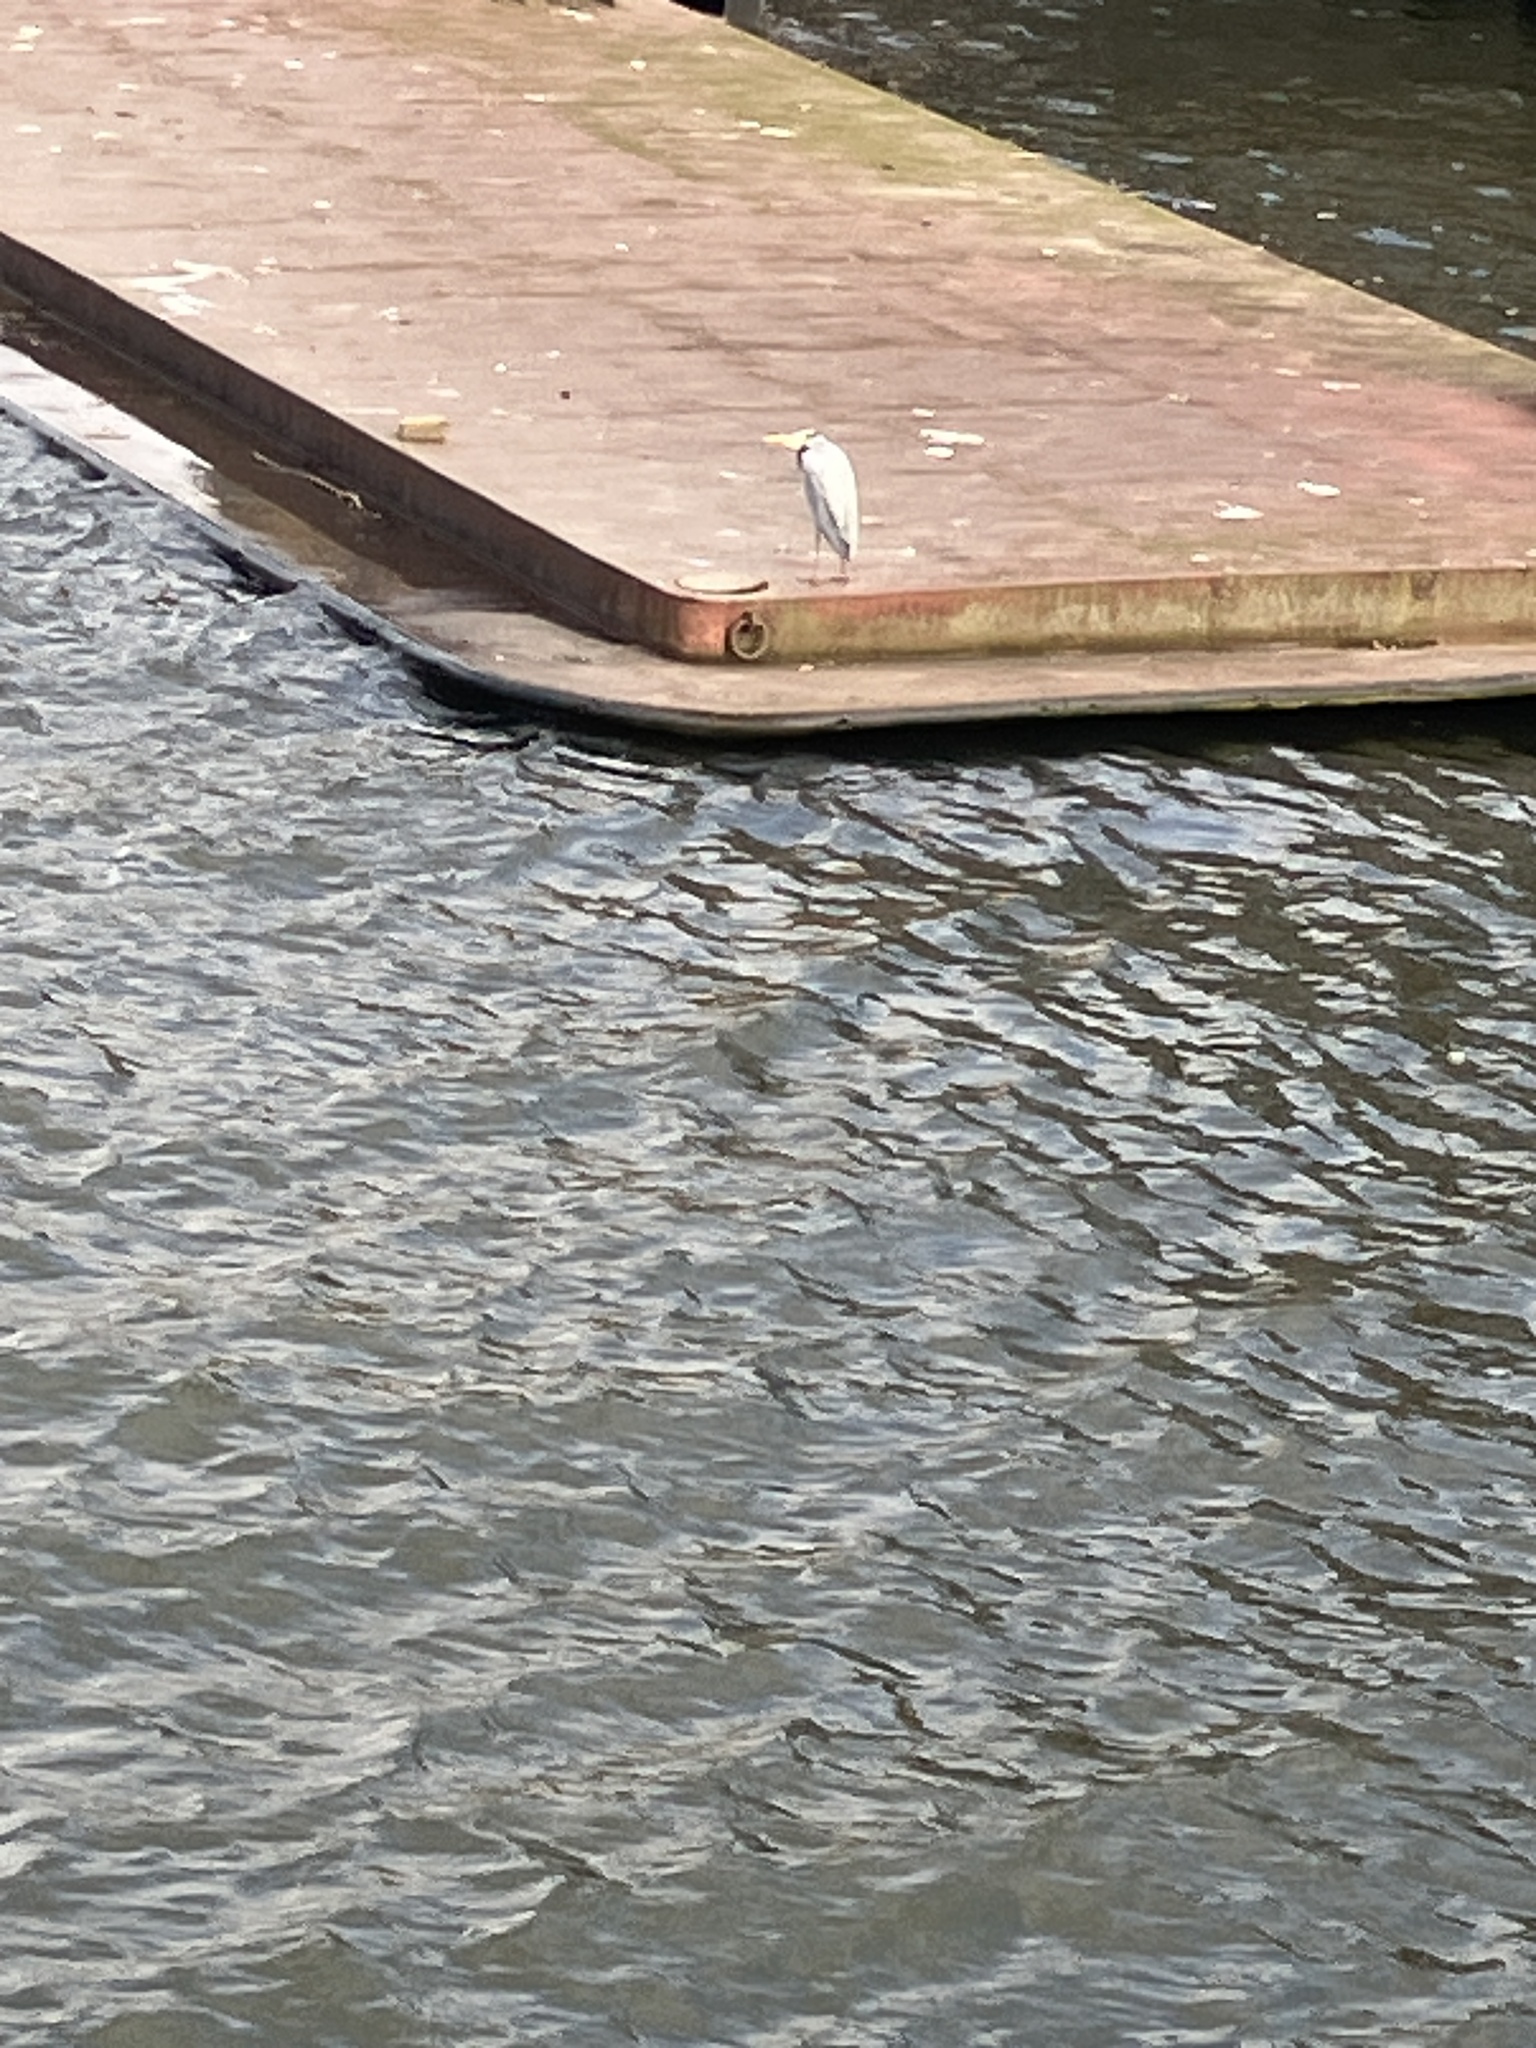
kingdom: Animalia
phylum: Chordata
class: Aves
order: Pelecaniformes
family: Ardeidae
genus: Ardea
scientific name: Ardea cinerea
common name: Grey heron
